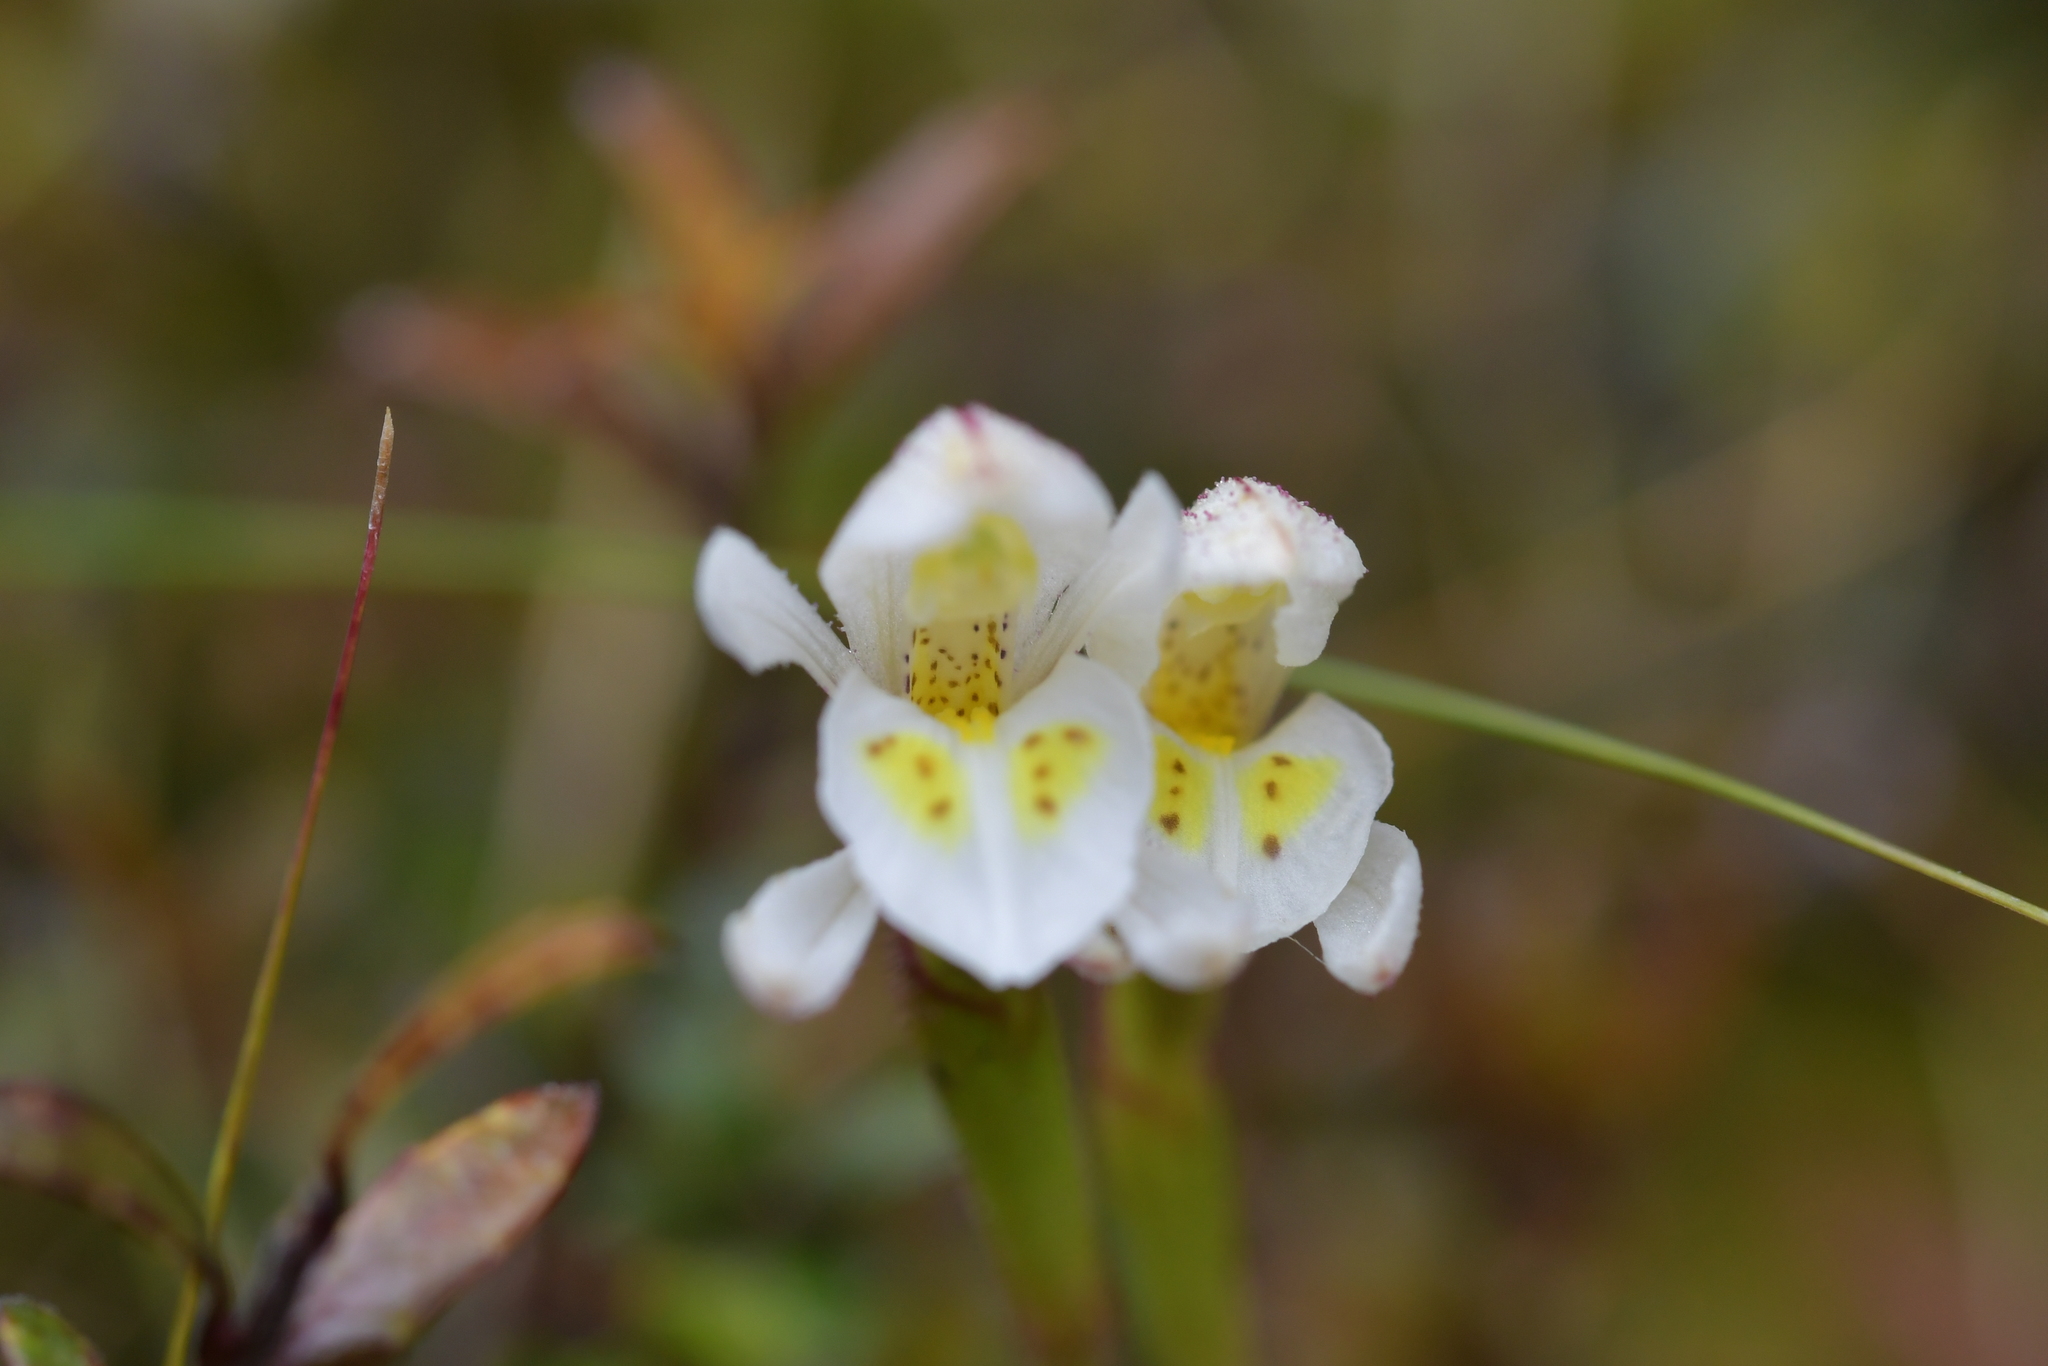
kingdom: Plantae
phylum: Tracheophyta
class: Liliopsida
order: Asparagales
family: Orchidaceae
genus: Aporostylis
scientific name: Aporostylis bifolia
